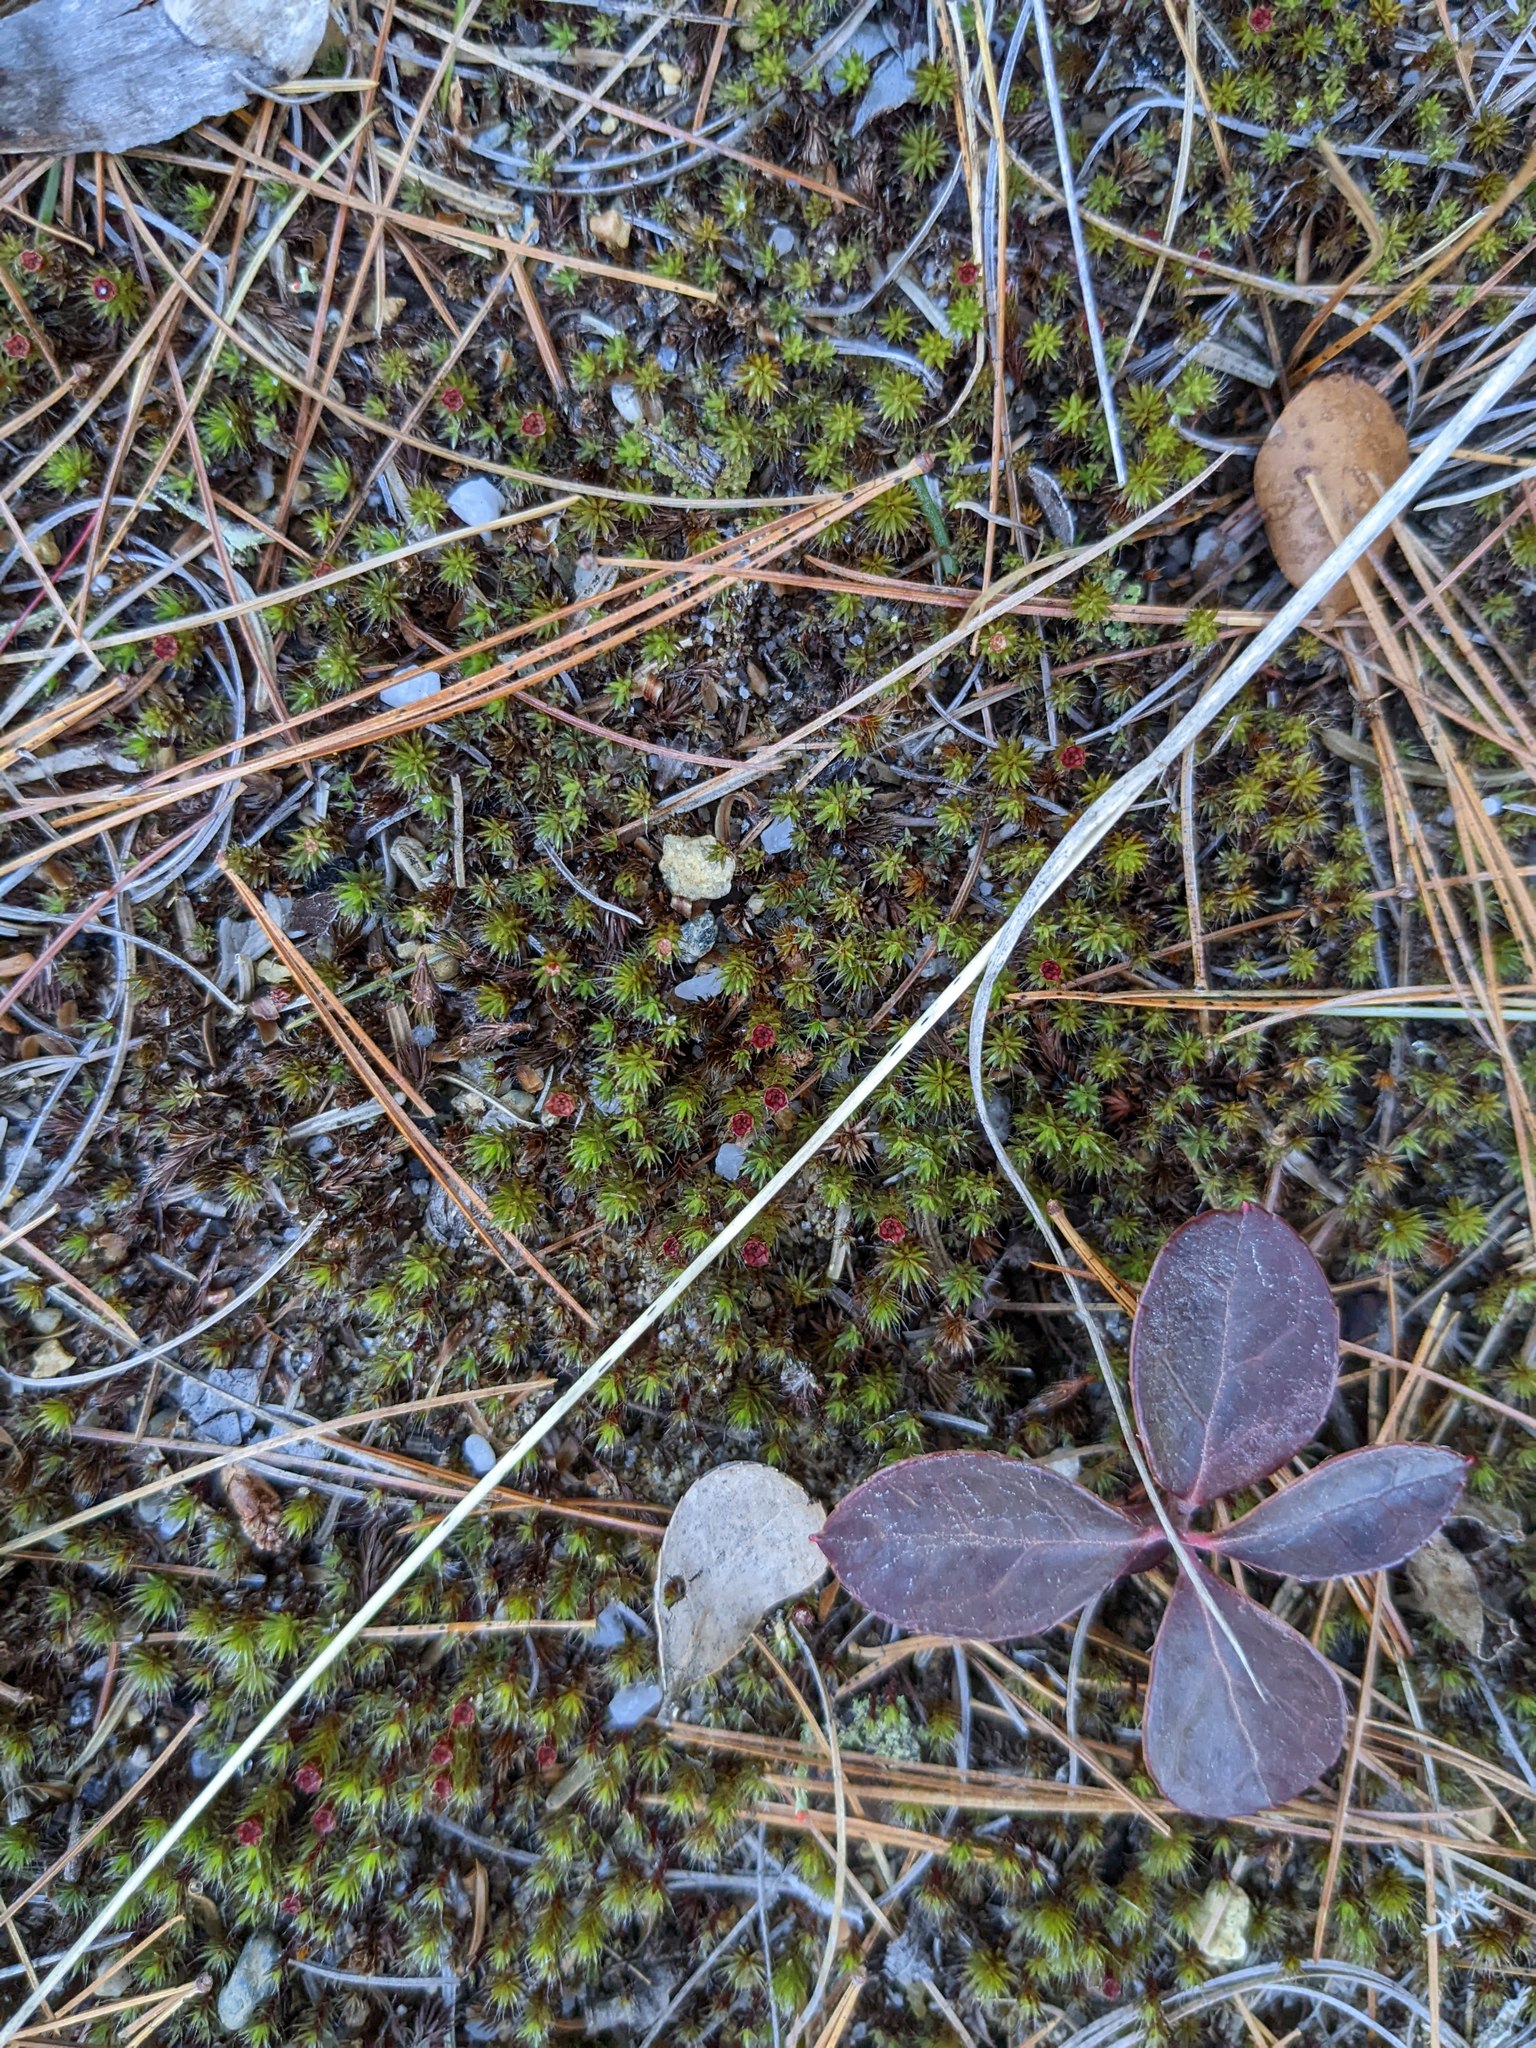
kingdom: Plantae
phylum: Tracheophyta
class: Magnoliopsida
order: Ericales
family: Ericaceae
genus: Gaultheria
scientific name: Gaultheria procumbens
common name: Checkerberry
